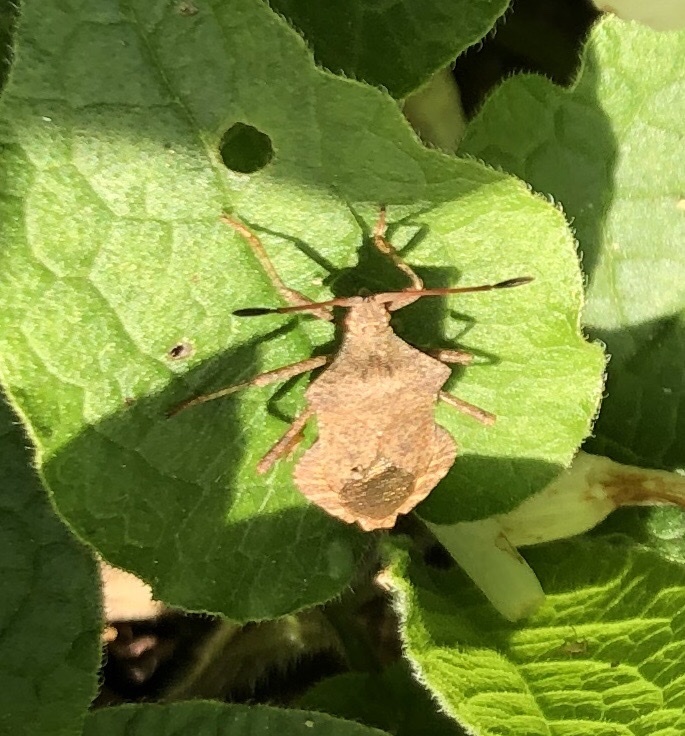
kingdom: Animalia
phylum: Arthropoda
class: Insecta
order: Hemiptera
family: Coreidae
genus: Coreus
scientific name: Coreus marginatus
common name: Dock bug
